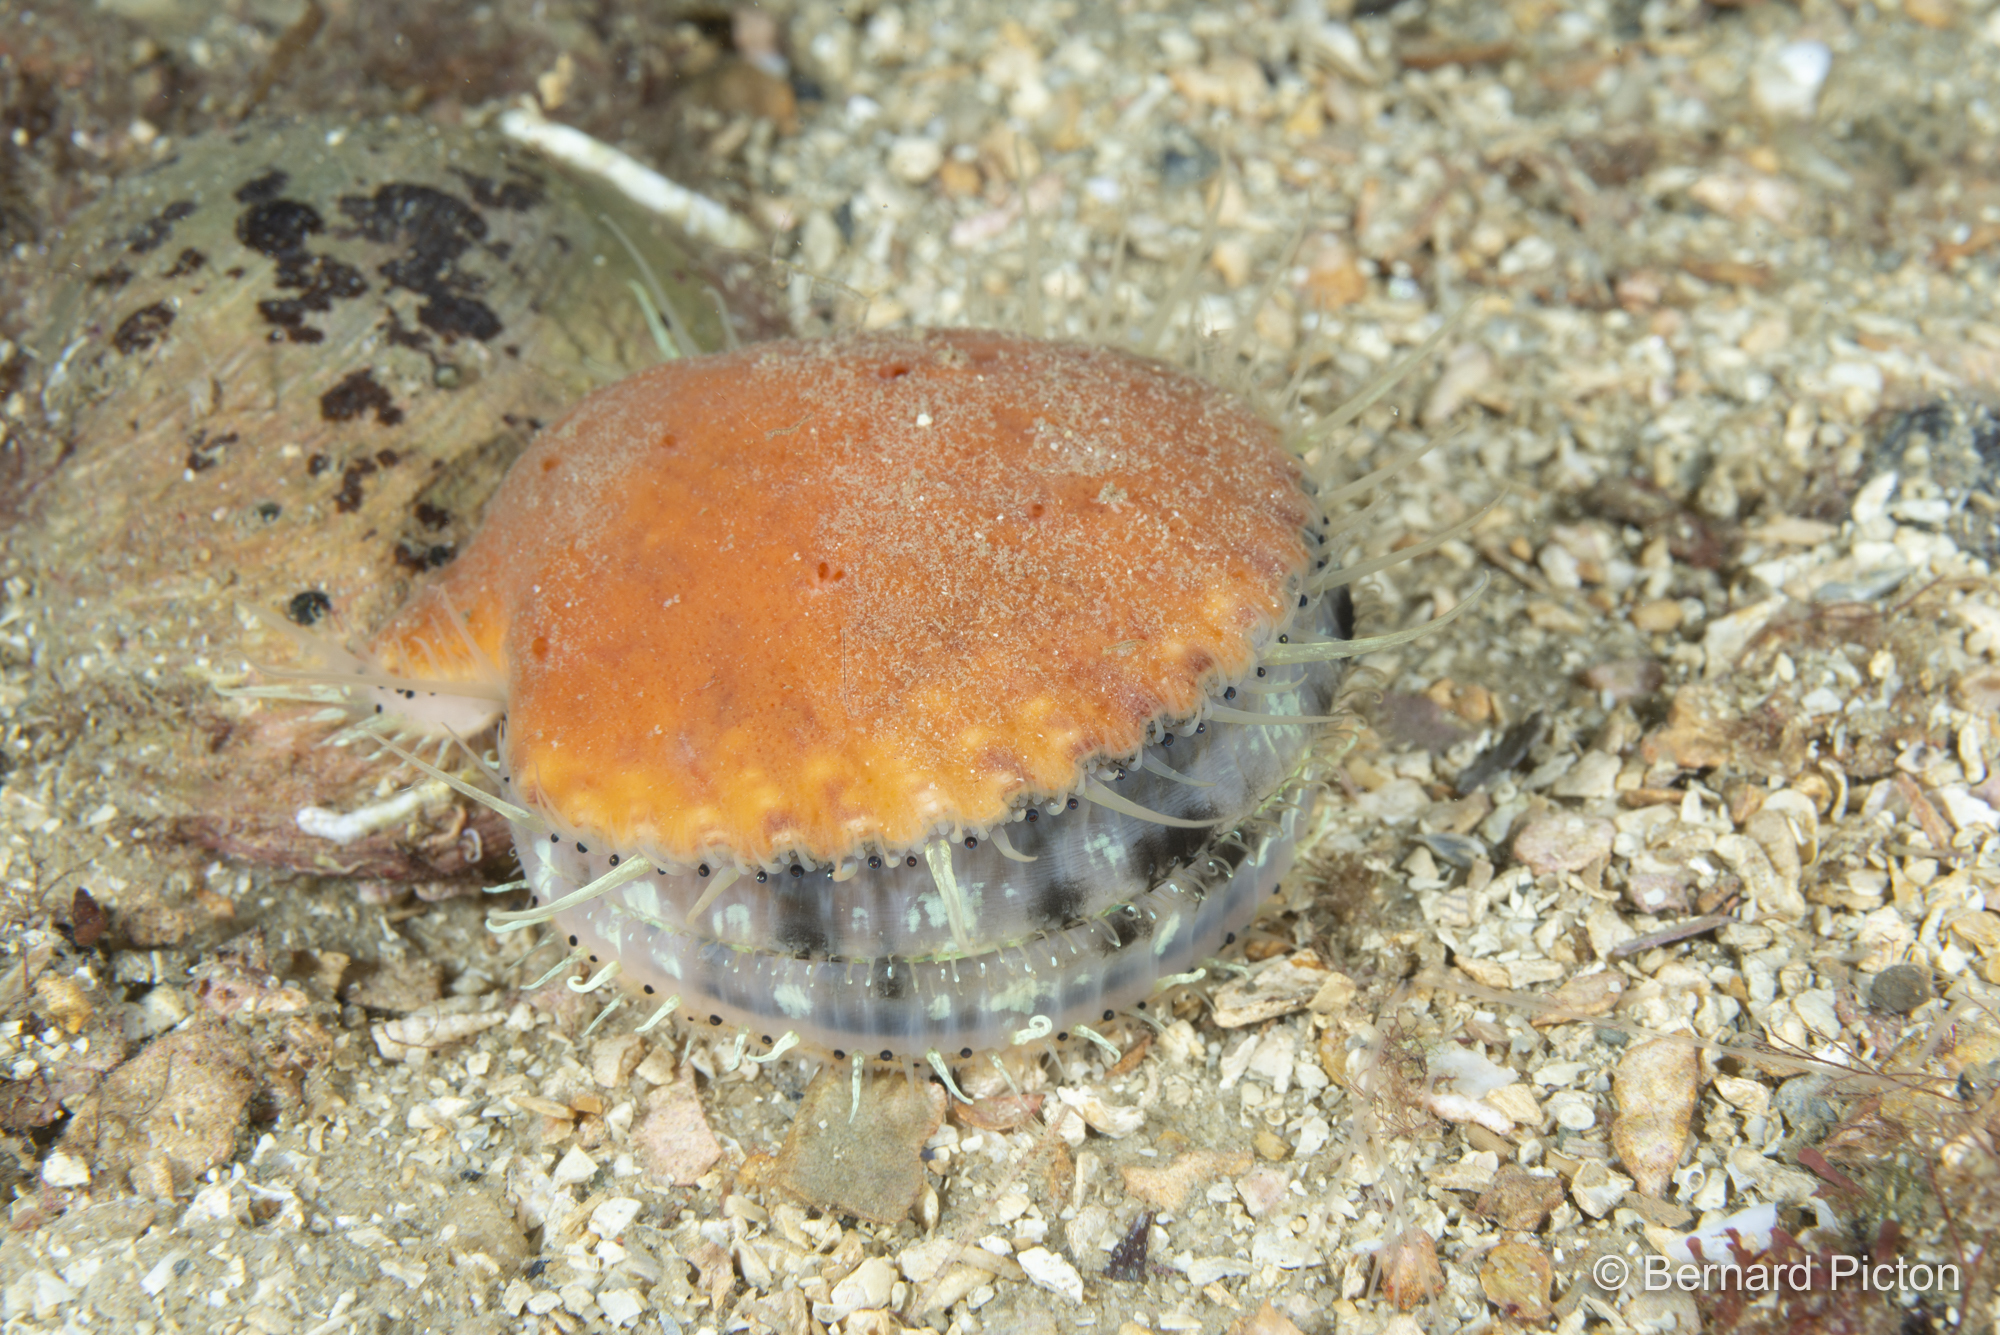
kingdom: Animalia
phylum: Mollusca
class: Bivalvia
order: Pectinida
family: Pectinidae
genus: Aequipecten
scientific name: Aequipecten opercularis
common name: Queen scallop
